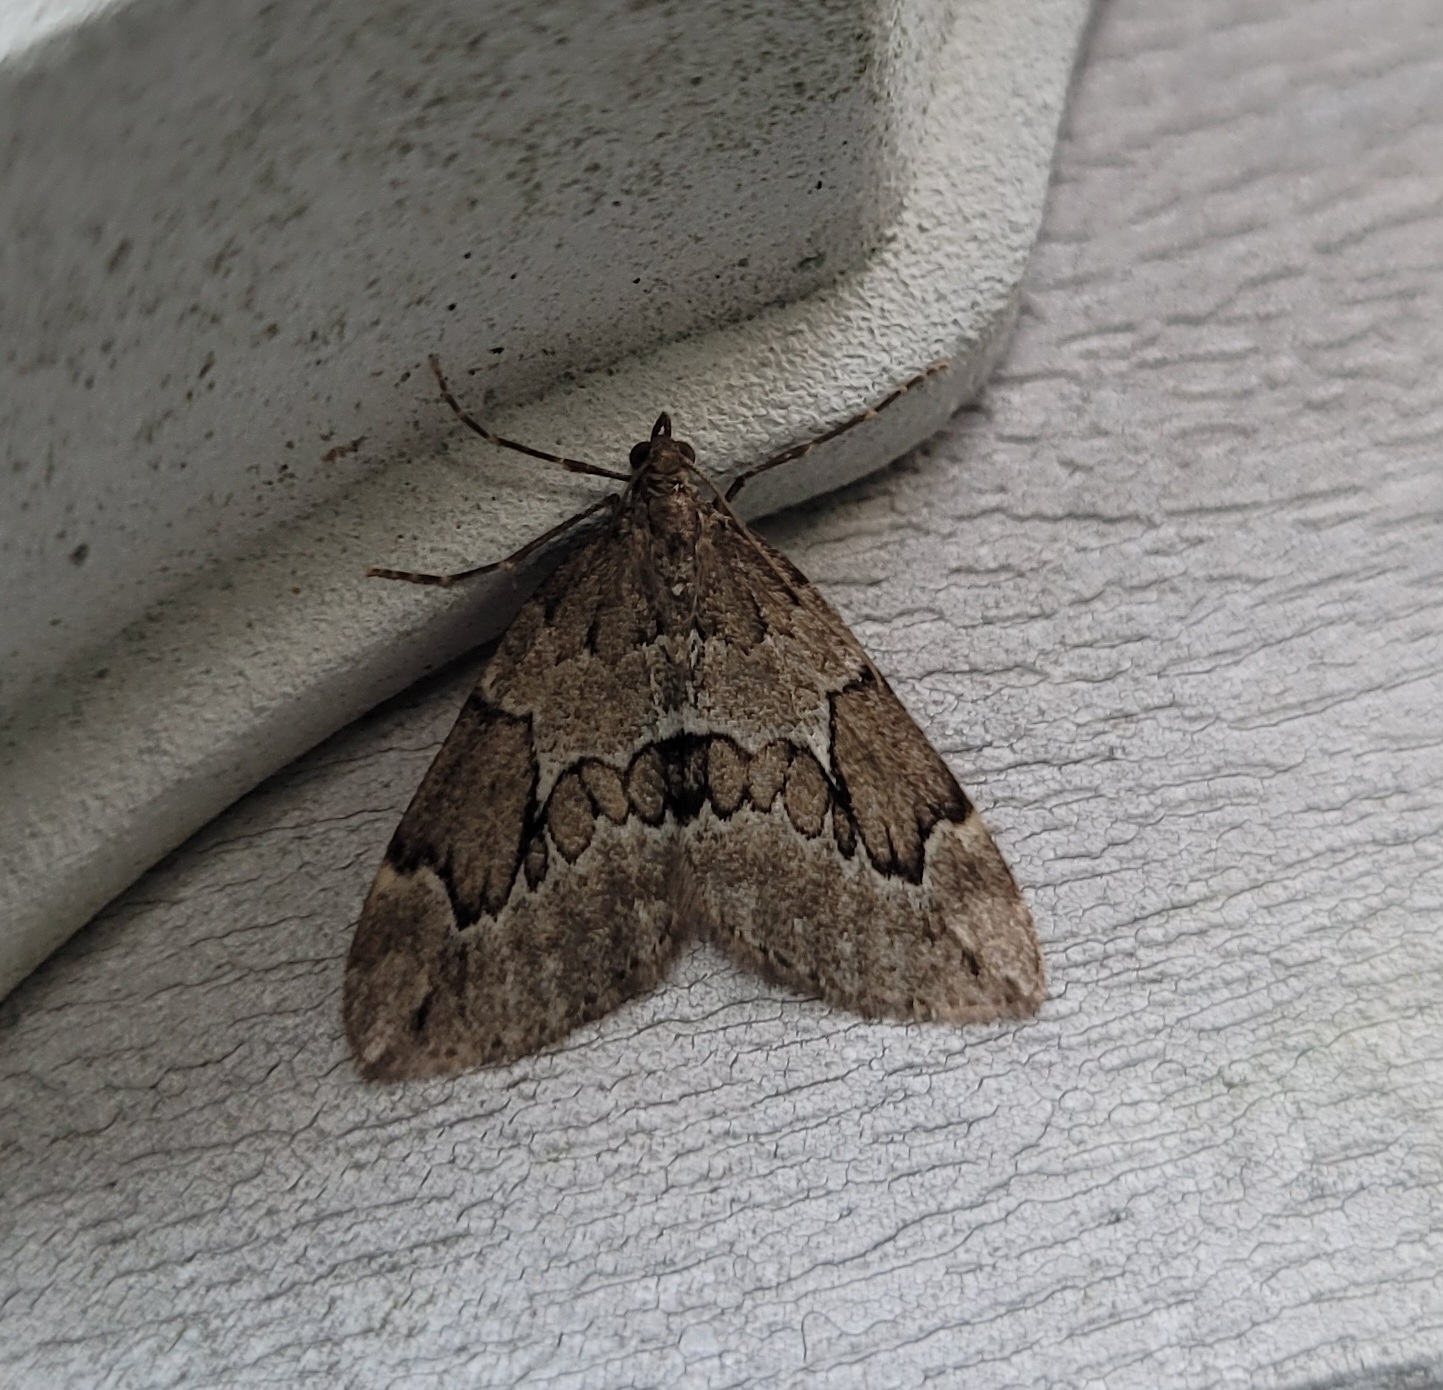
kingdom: Animalia
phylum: Arthropoda
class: Insecta
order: Lepidoptera
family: Geometridae
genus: Thera
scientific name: Thera juniperata
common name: Juniper carpet
